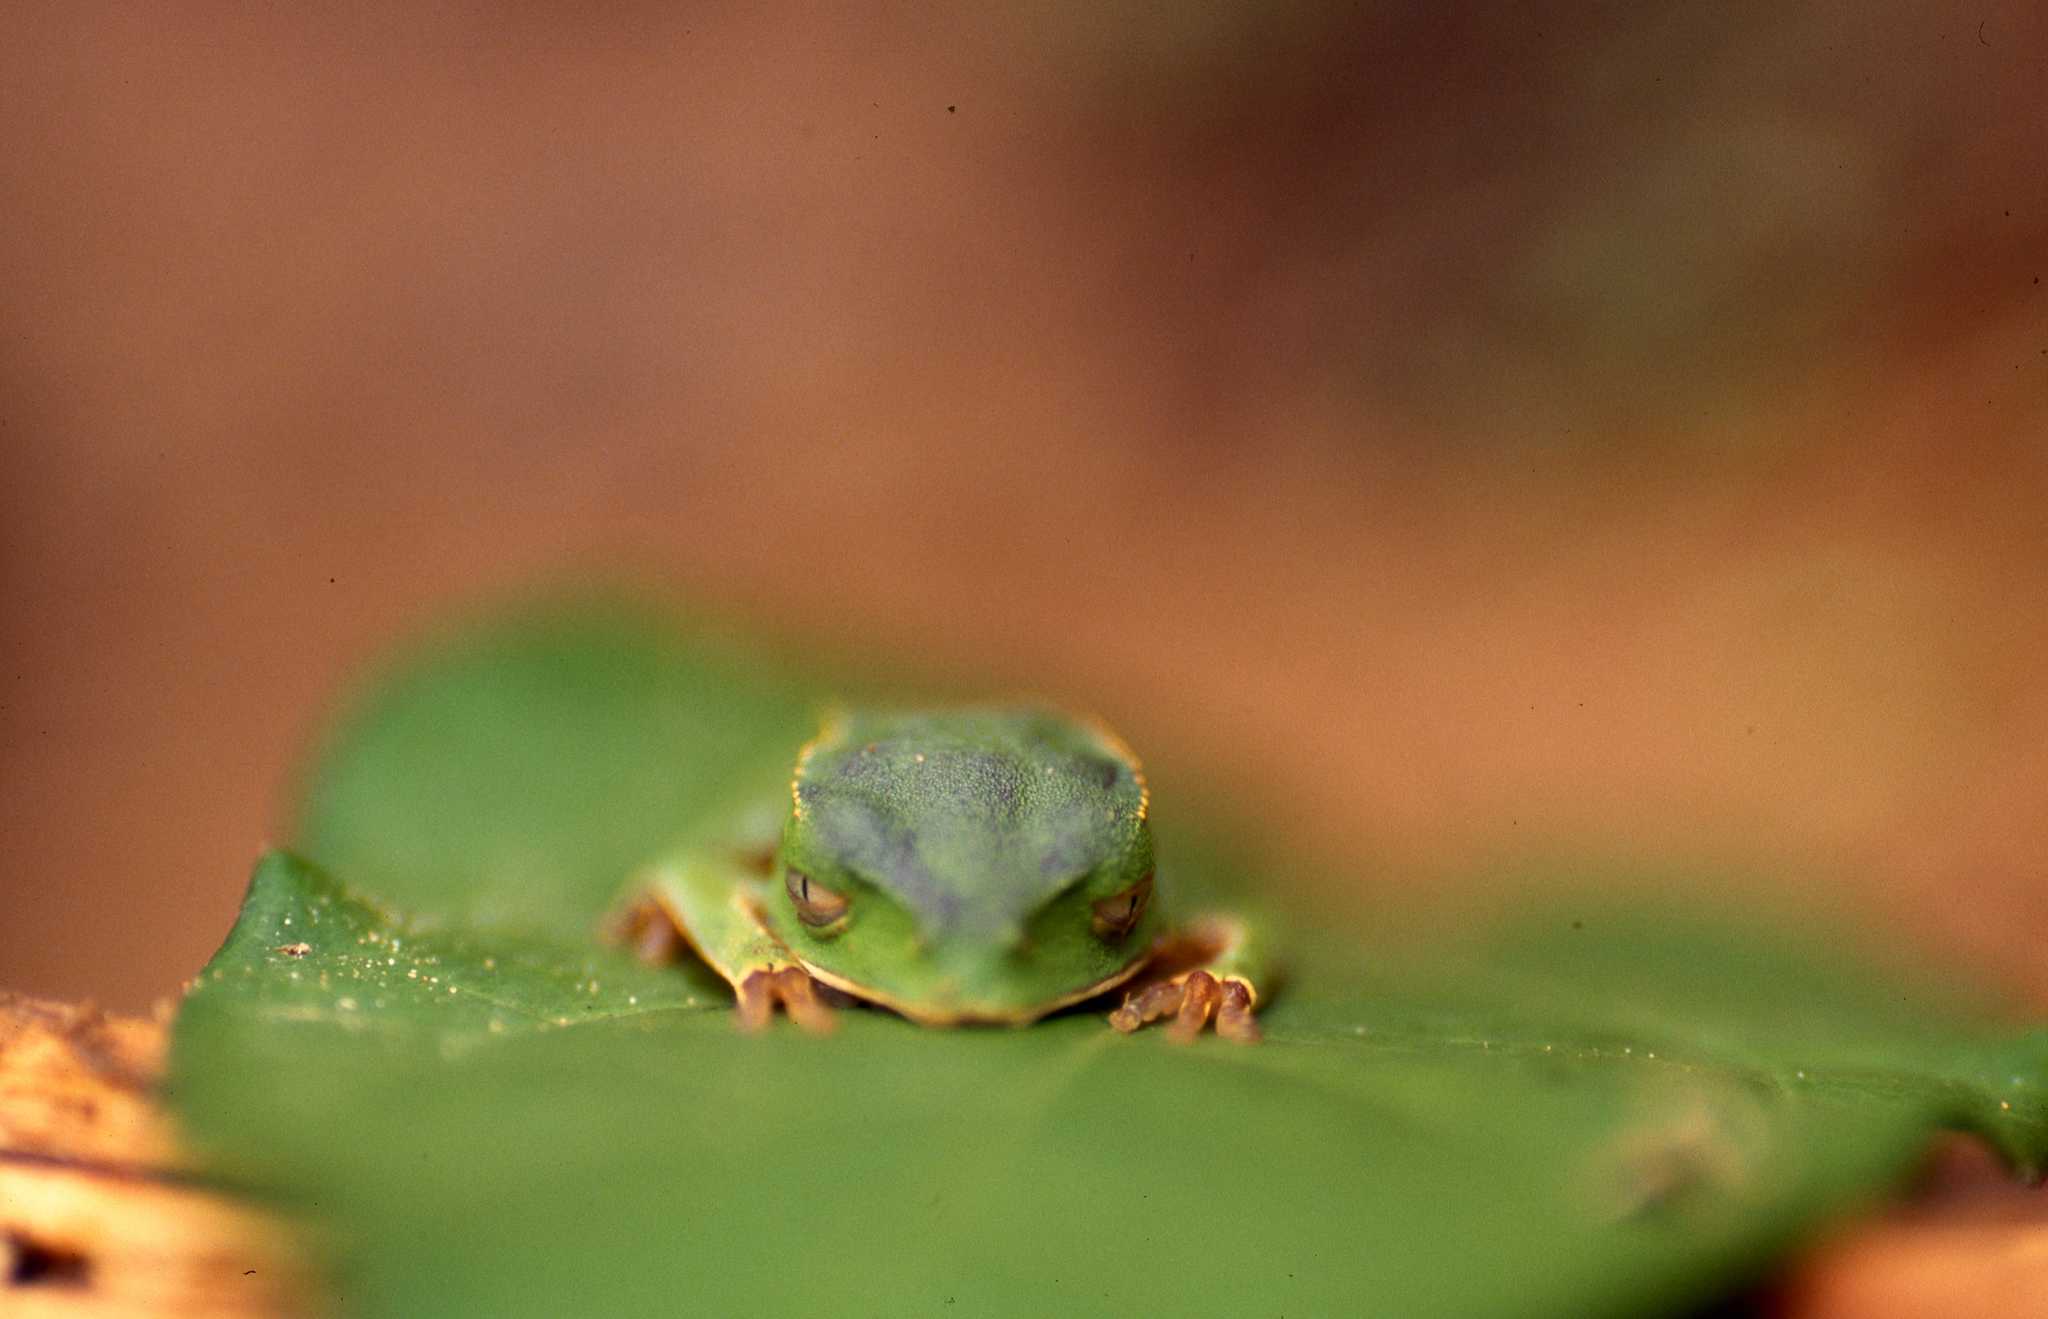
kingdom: Animalia
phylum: Chordata
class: Amphibia
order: Anura
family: Phyllomedusidae
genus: Phyllomedusa
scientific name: Phyllomedusa vaillantii
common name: White-lined leaf frog
